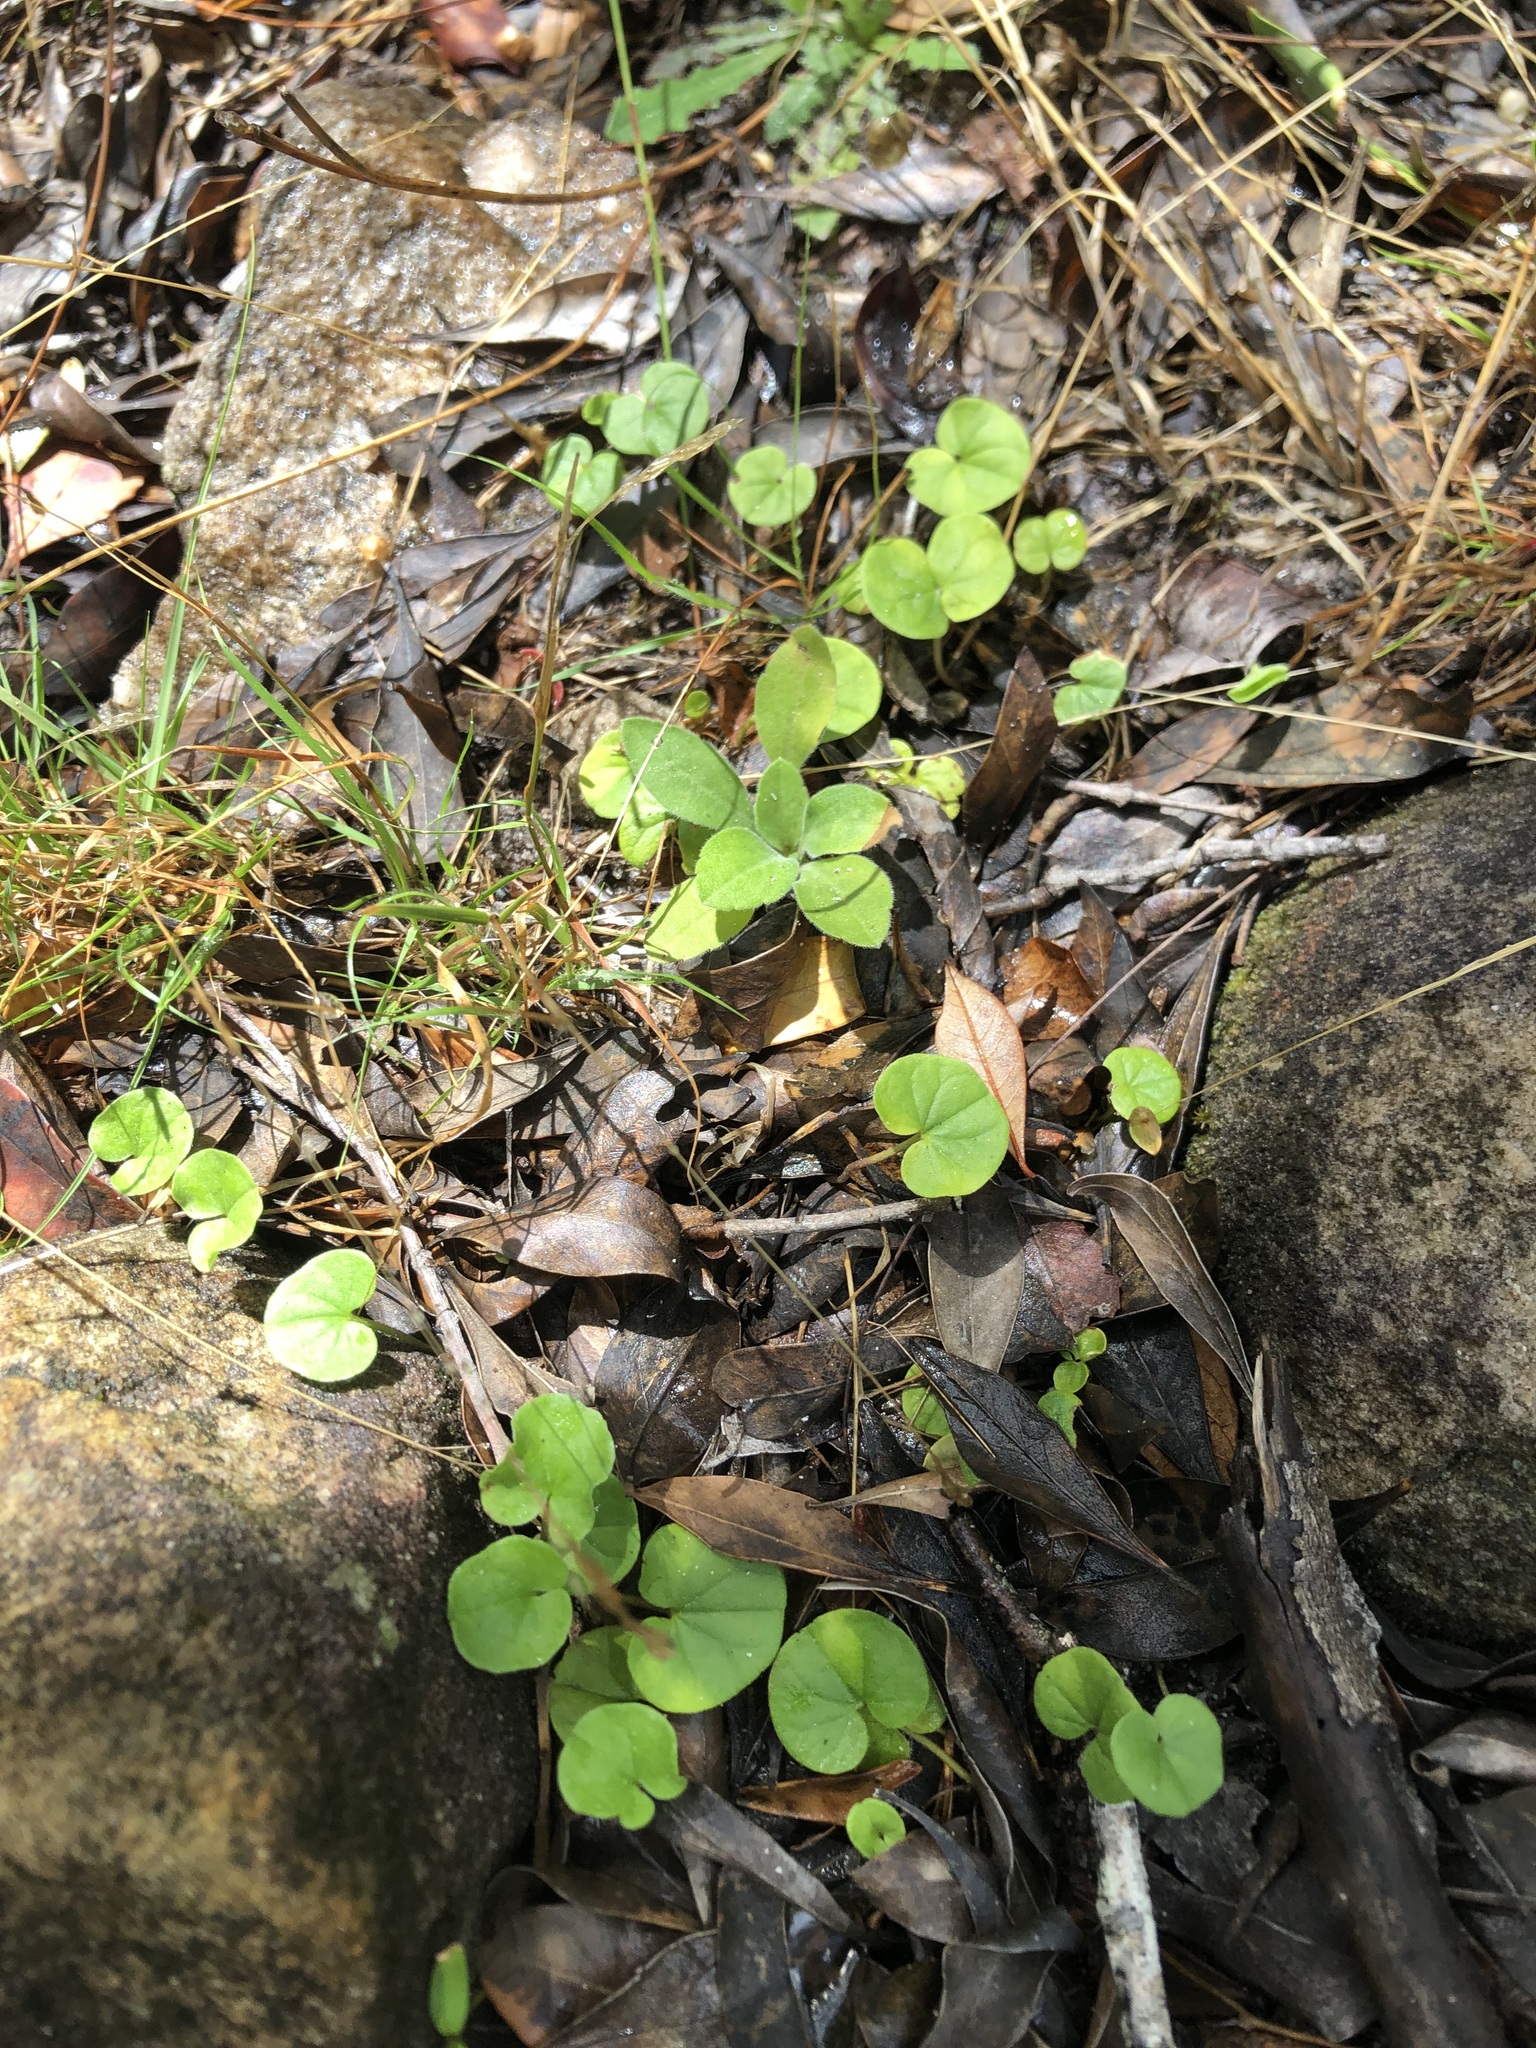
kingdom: Plantae
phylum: Tracheophyta
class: Magnoliopsida
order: Solanales
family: Convolvulaceae
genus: Dichondra
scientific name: Dichondra micrantha
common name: Kidneyweed
